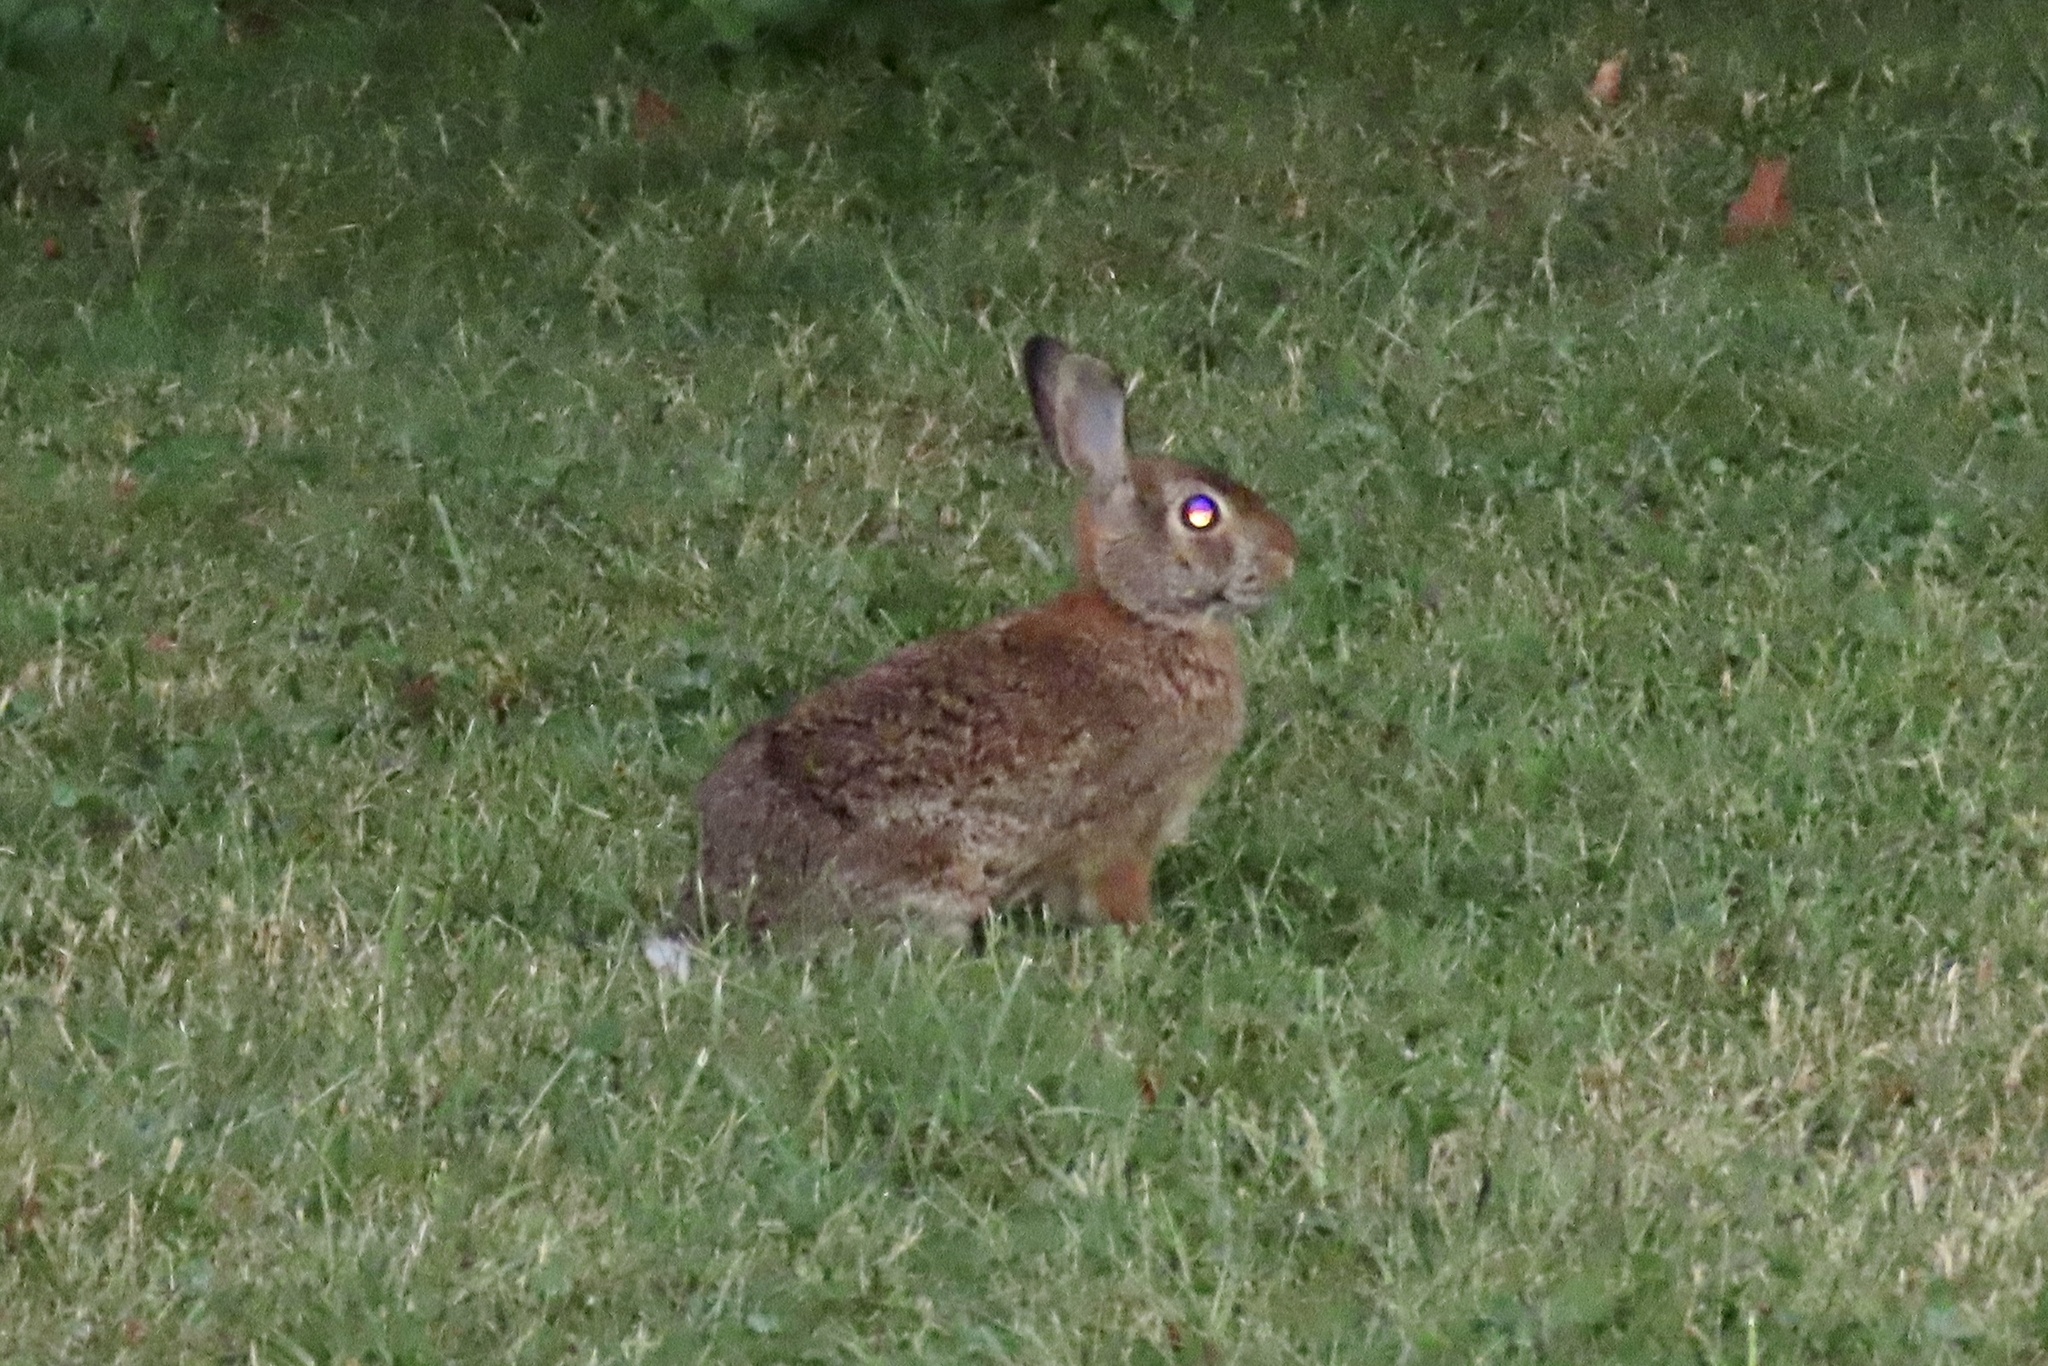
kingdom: Animalia
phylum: Chordata
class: Mammalia
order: Lagomorpha
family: Leporidae
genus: Sylvilagus
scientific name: Sylvilagus floridanus
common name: Eastern cottontail
